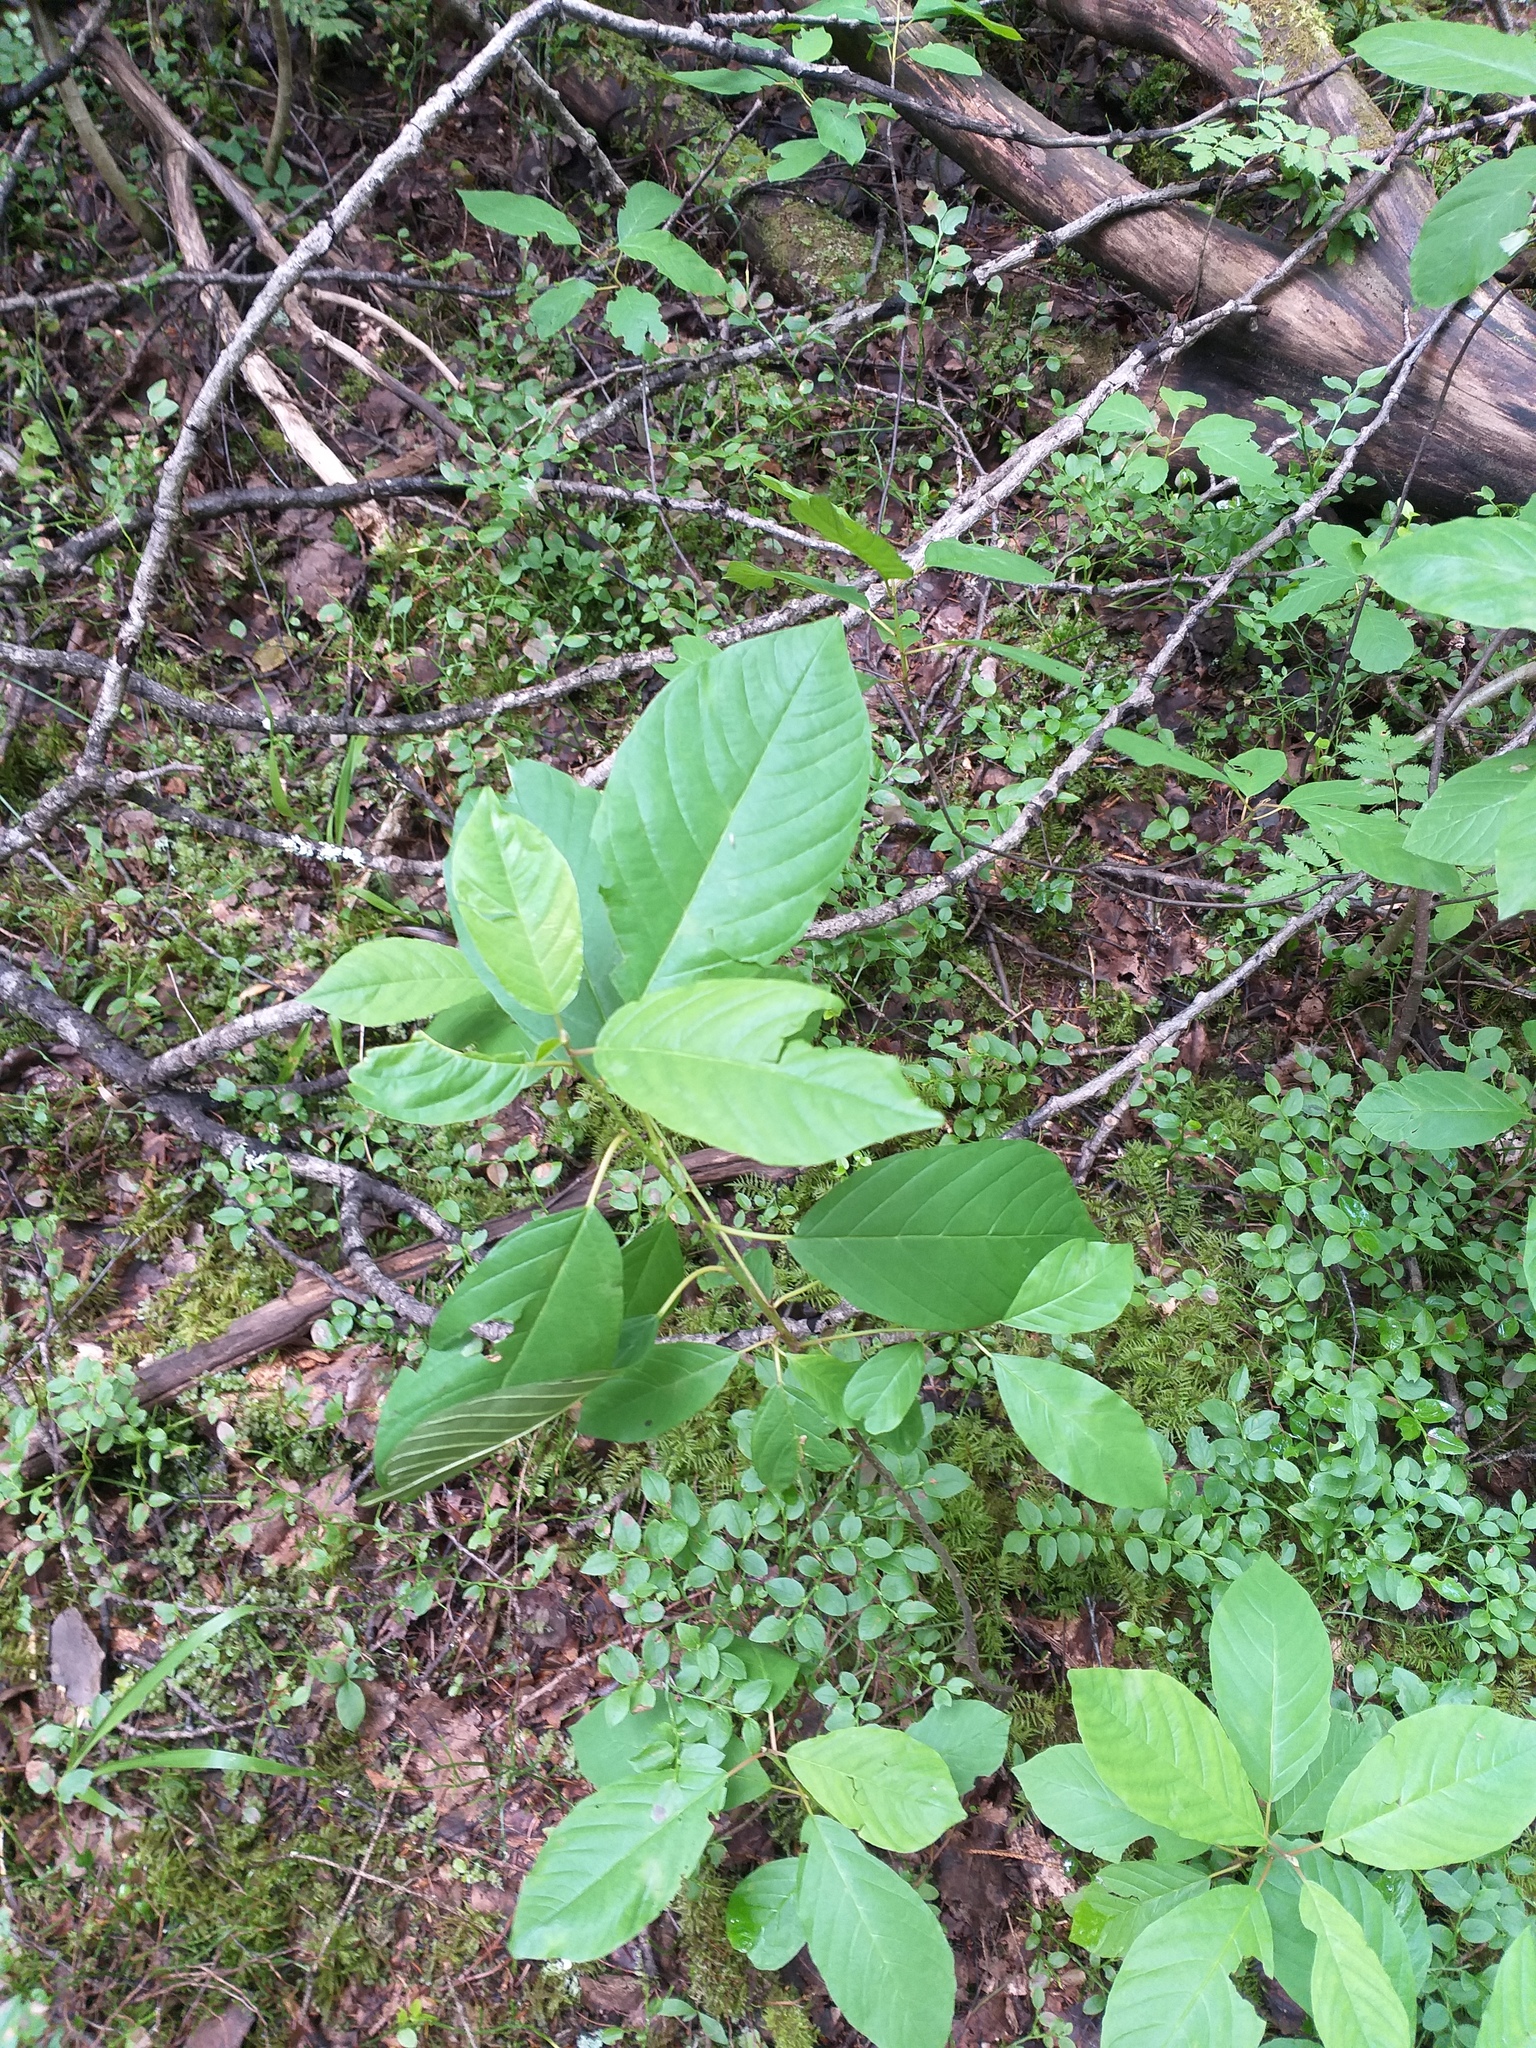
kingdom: Plantae
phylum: Tracheophyta
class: Magnoliopsida
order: Rosales
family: Rhamnaceae
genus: Frangula
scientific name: Frangula alnus
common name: Alder buckthorn
